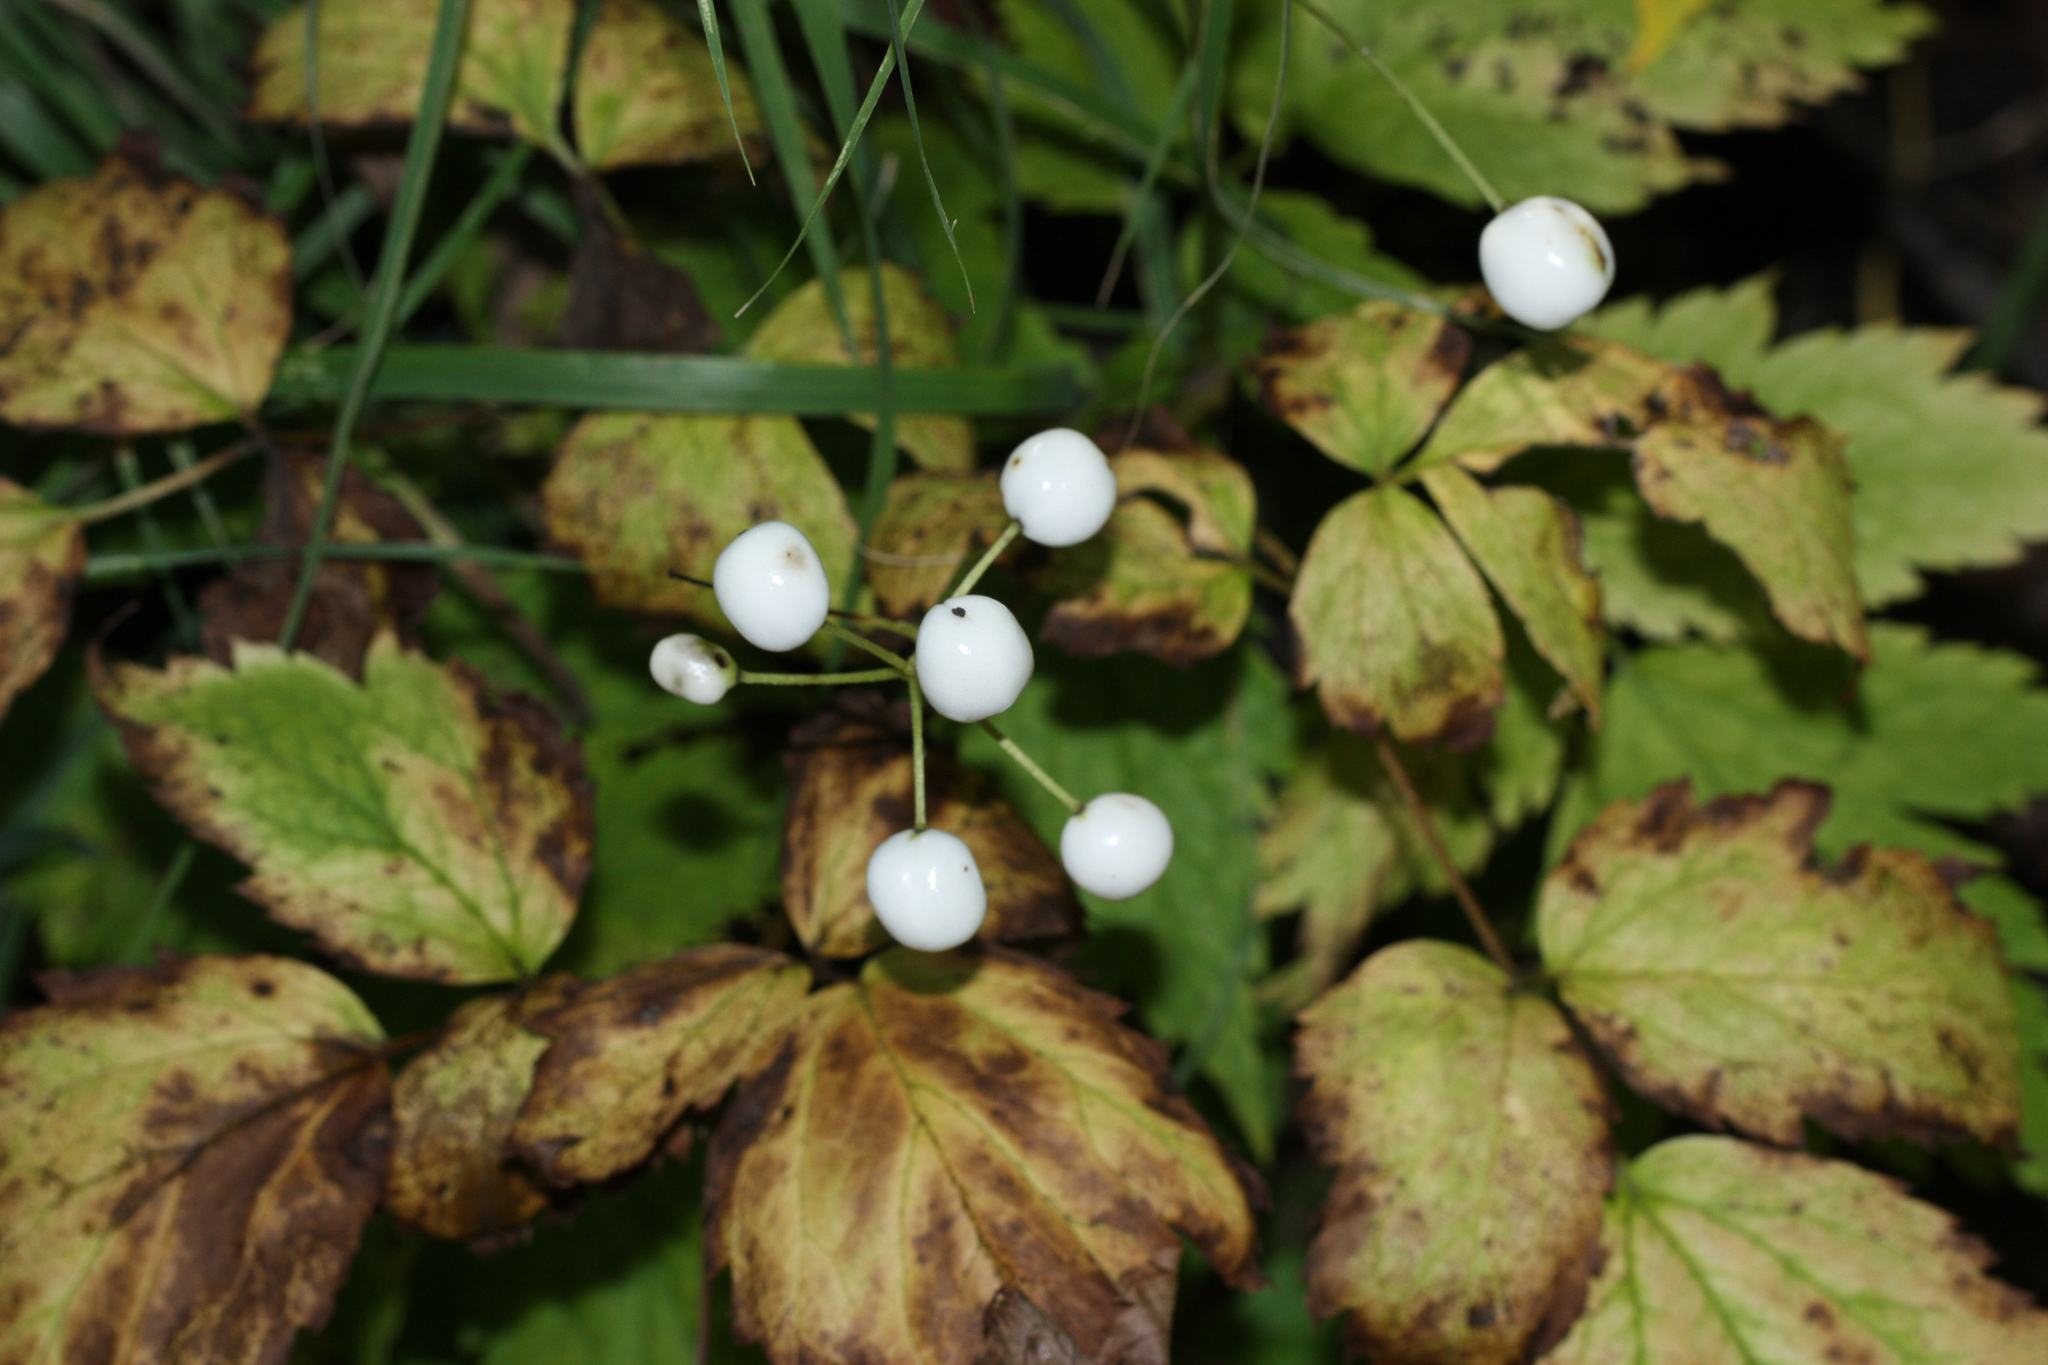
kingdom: Plantae
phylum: Tracheophyta
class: Magnoliopsida
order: Ranunculales
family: Ranunculaceae
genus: Actaea
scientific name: Actaea rubra
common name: Red baneberry
